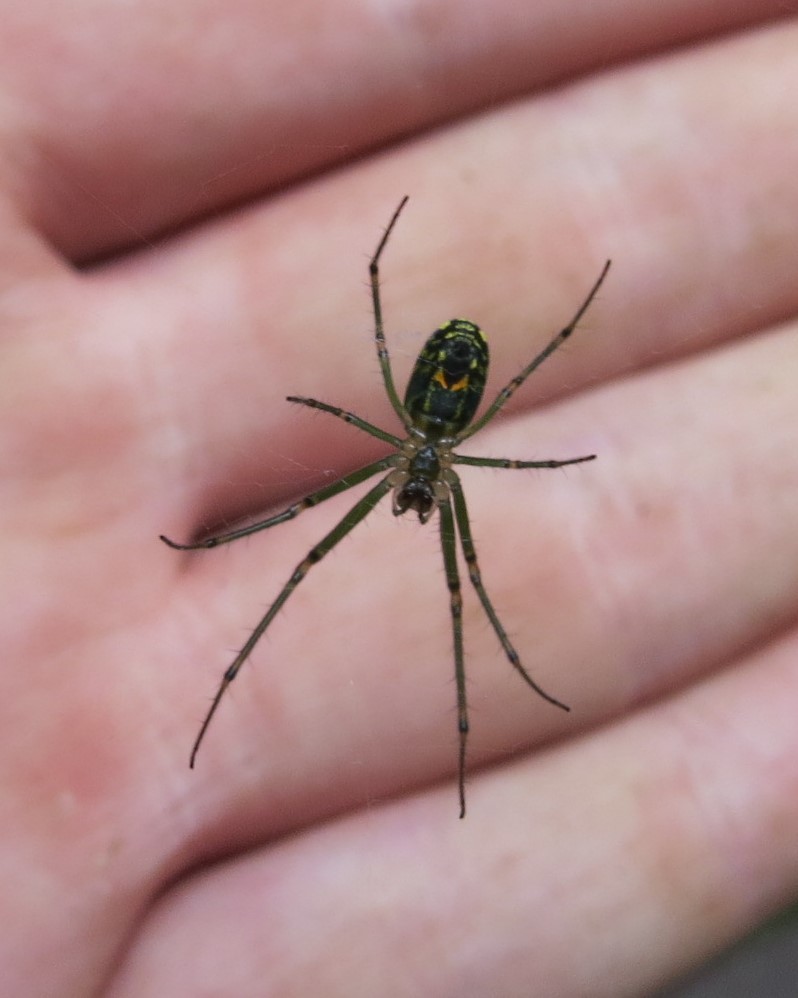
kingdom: Animalia
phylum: Arthropoda
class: Arachnida
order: Araneae
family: Tetragnathidae
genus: Leucauge
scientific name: Leucauge venusta
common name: Longjawed orb weavers
